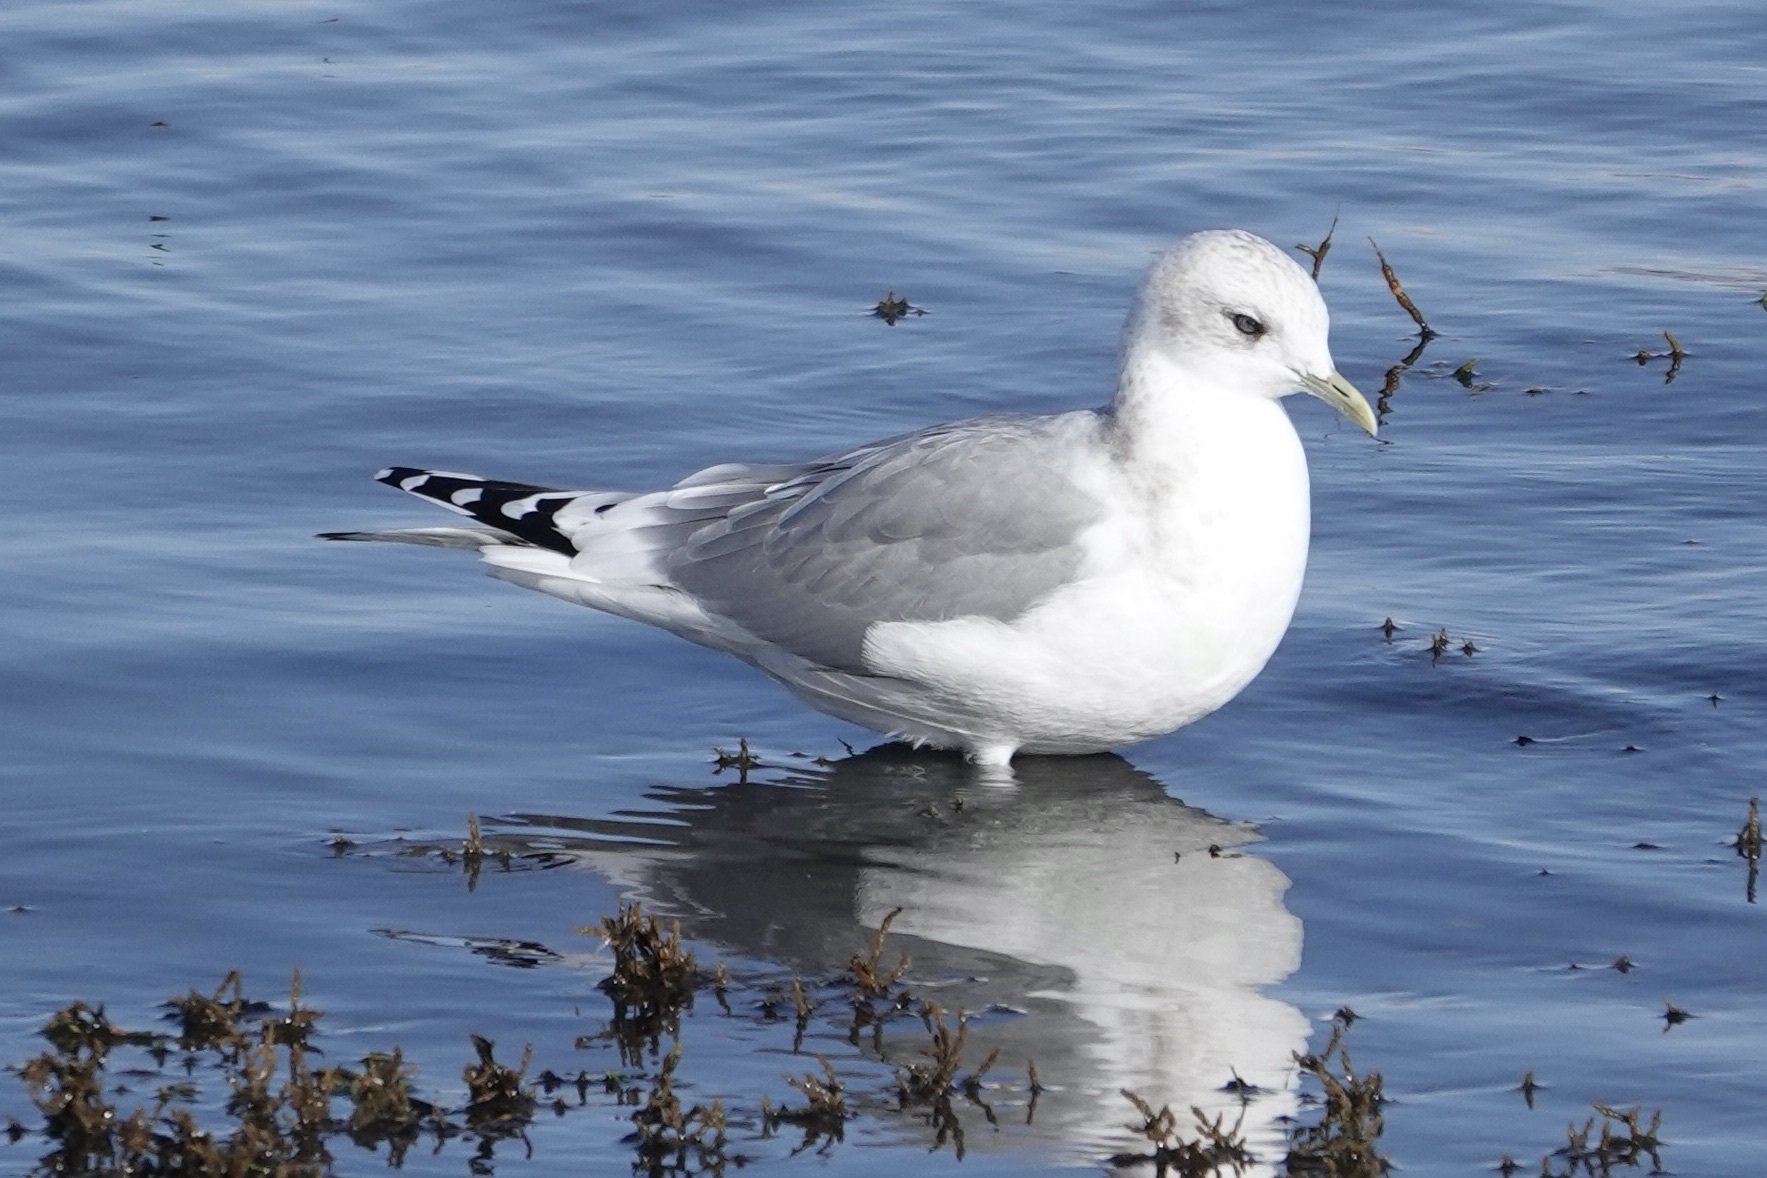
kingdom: Animalia
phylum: Chordata
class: Aves
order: Charadriiformes
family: Laridae
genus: Larus
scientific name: Larus brachyrhynchus
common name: Short-billed gull
